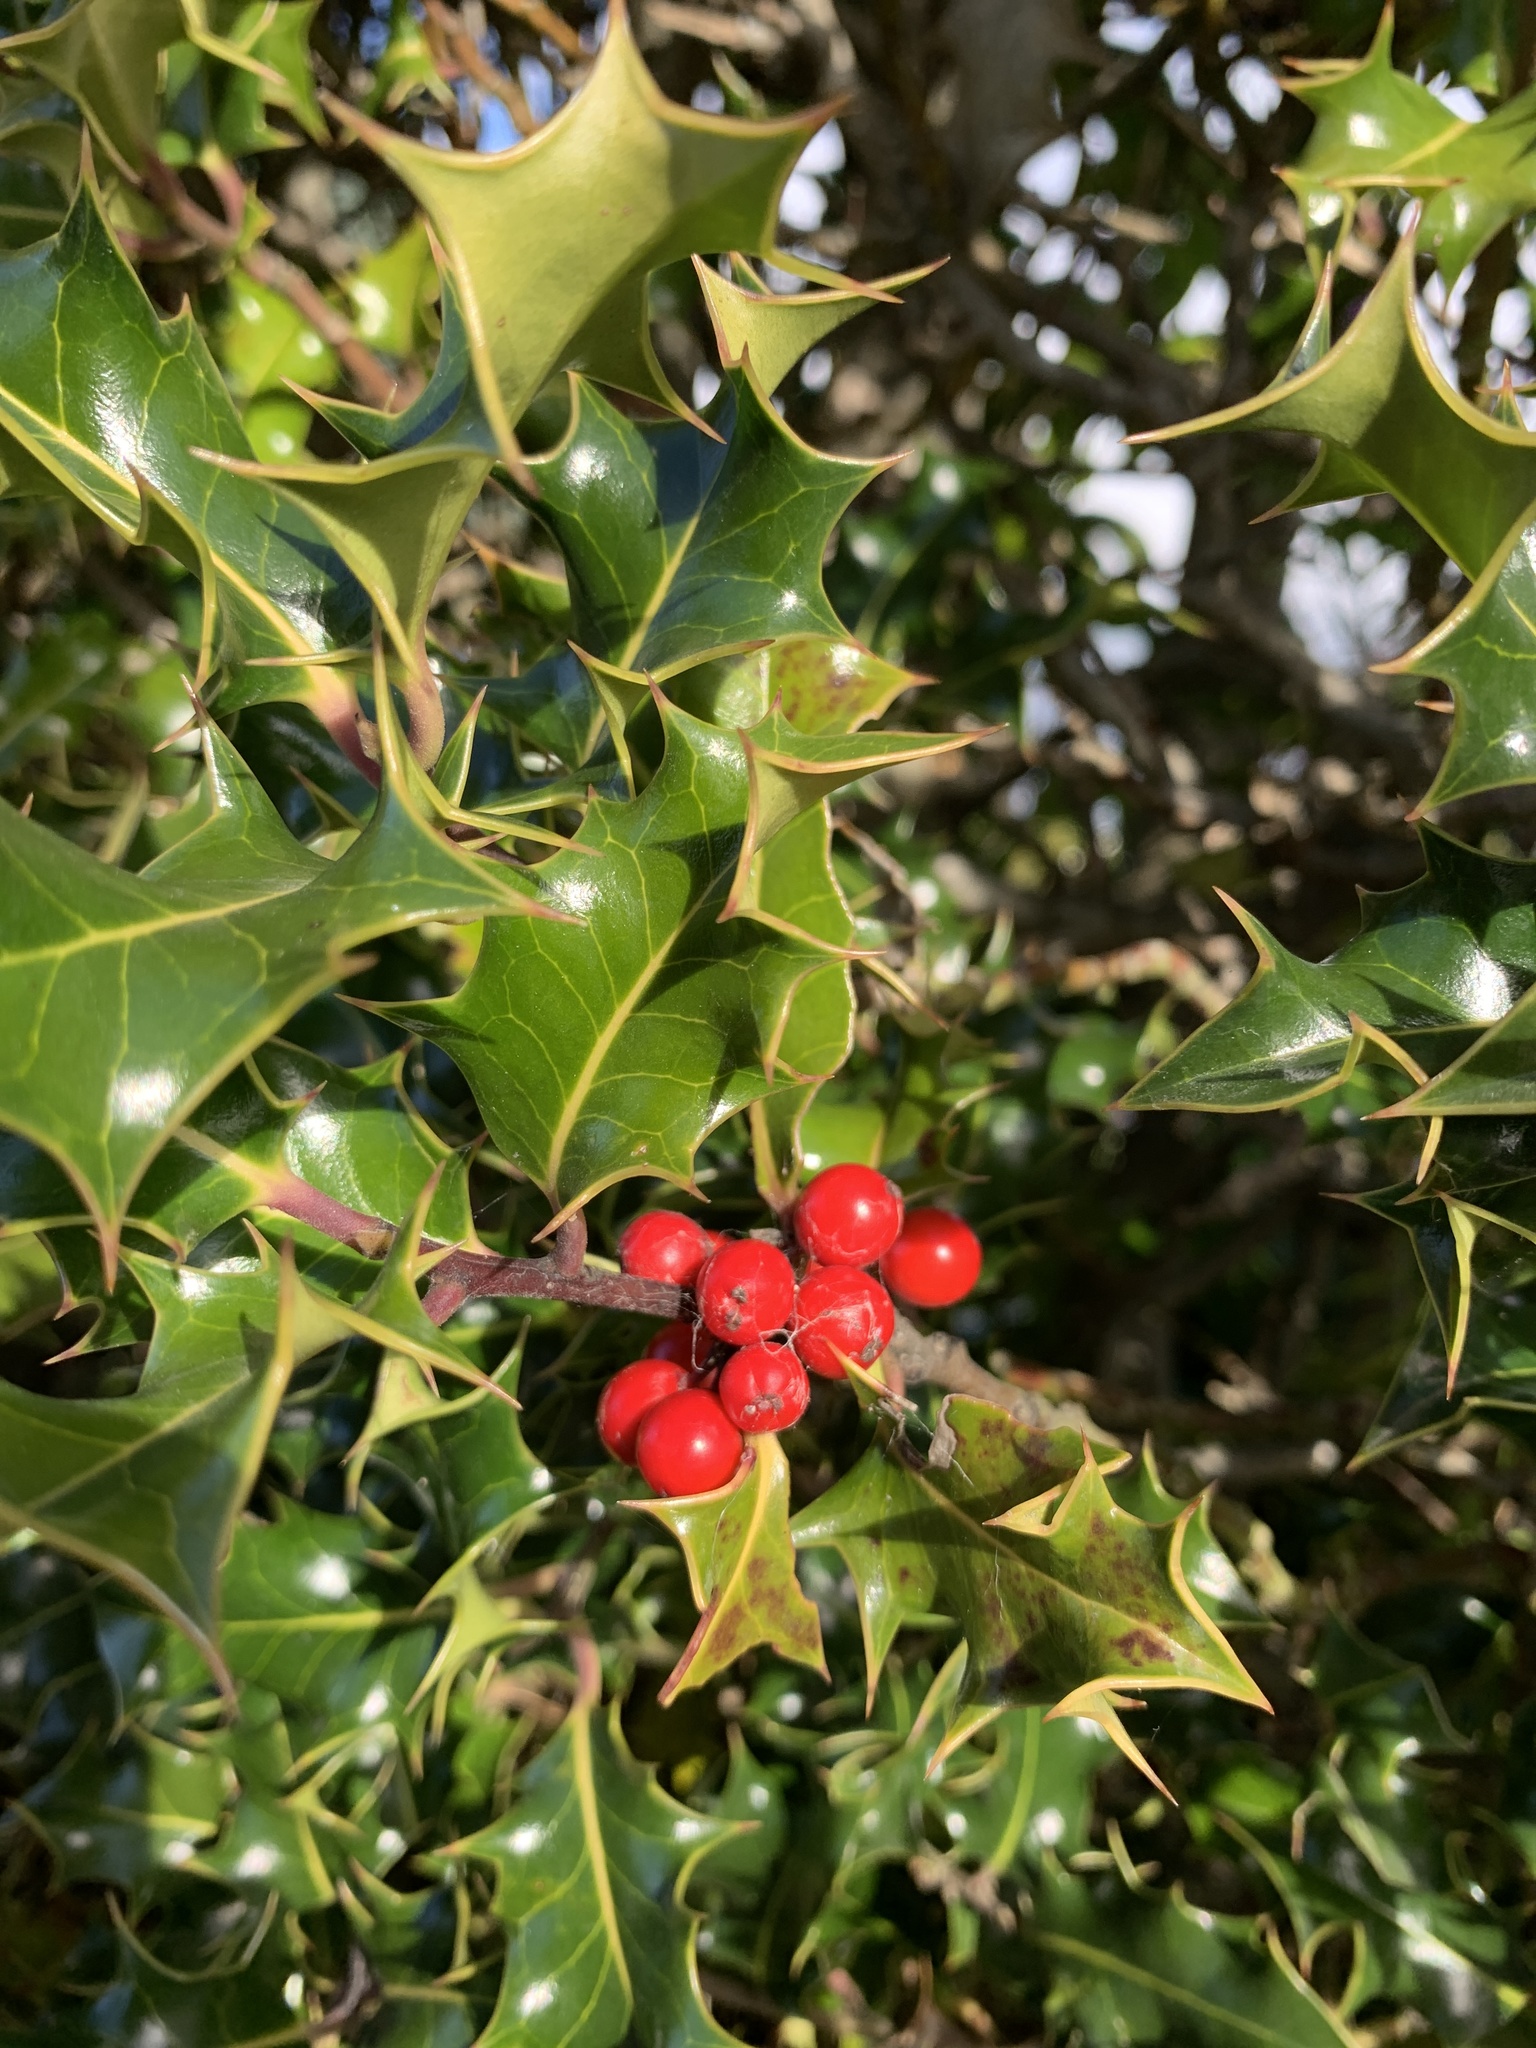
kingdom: Plantae
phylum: Tracheophyta
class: Magnoliopsida
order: Aquifoliales
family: Aquifoliaceae
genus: Ilex
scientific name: Ilex aquifolium
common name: English holly
